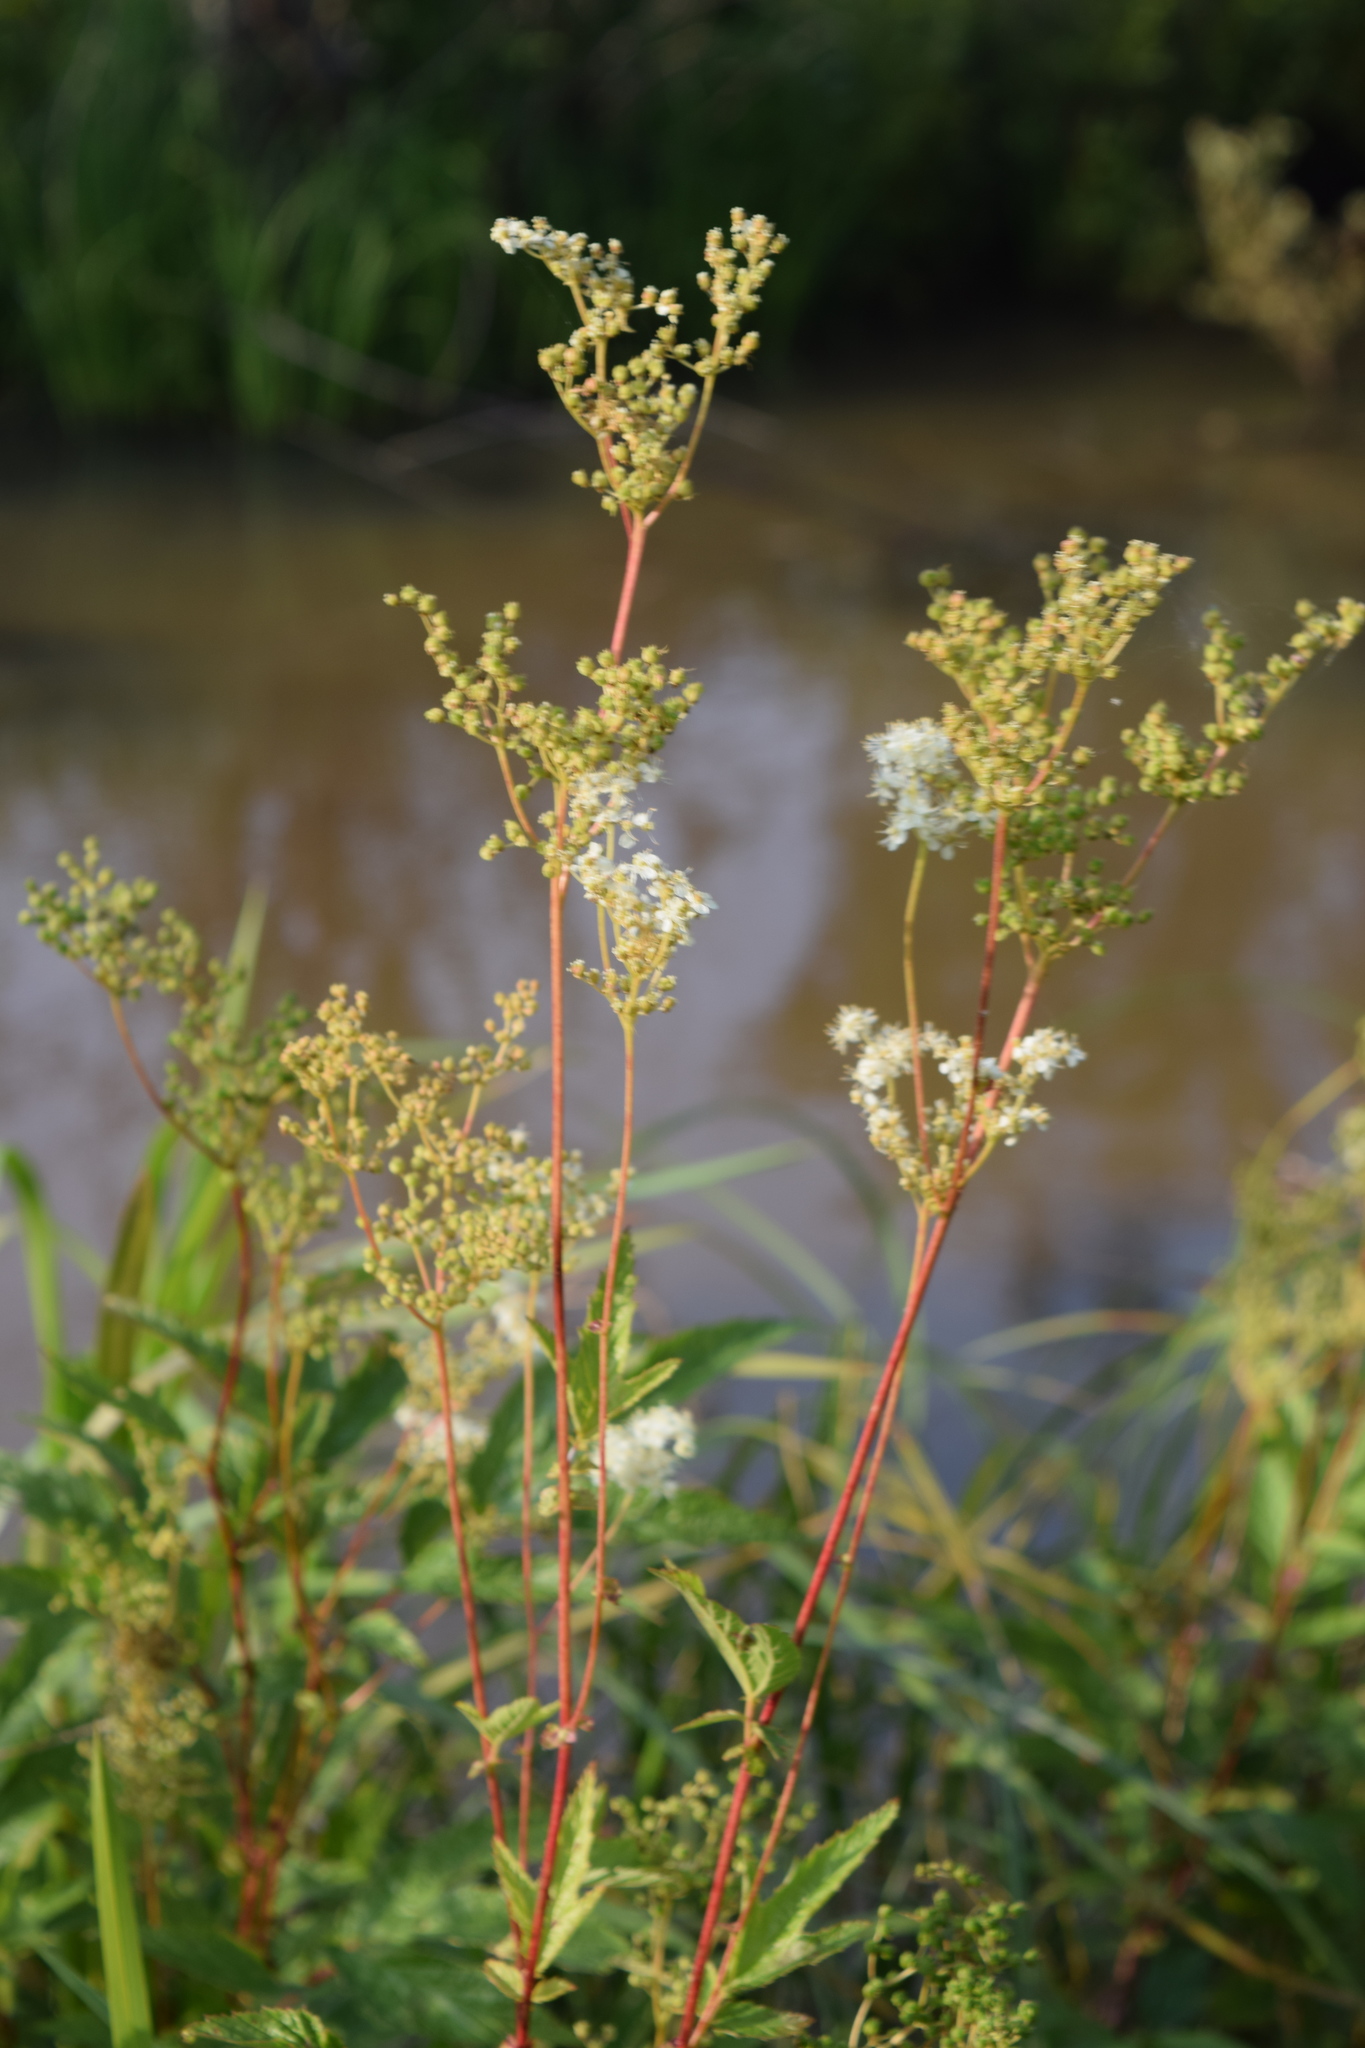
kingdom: Plantae
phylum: Tracheophyta
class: Magnoliopsida
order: Rosales
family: Rosaceae
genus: Filipendula
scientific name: Filipendula ulmaria
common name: Meadowsweet
